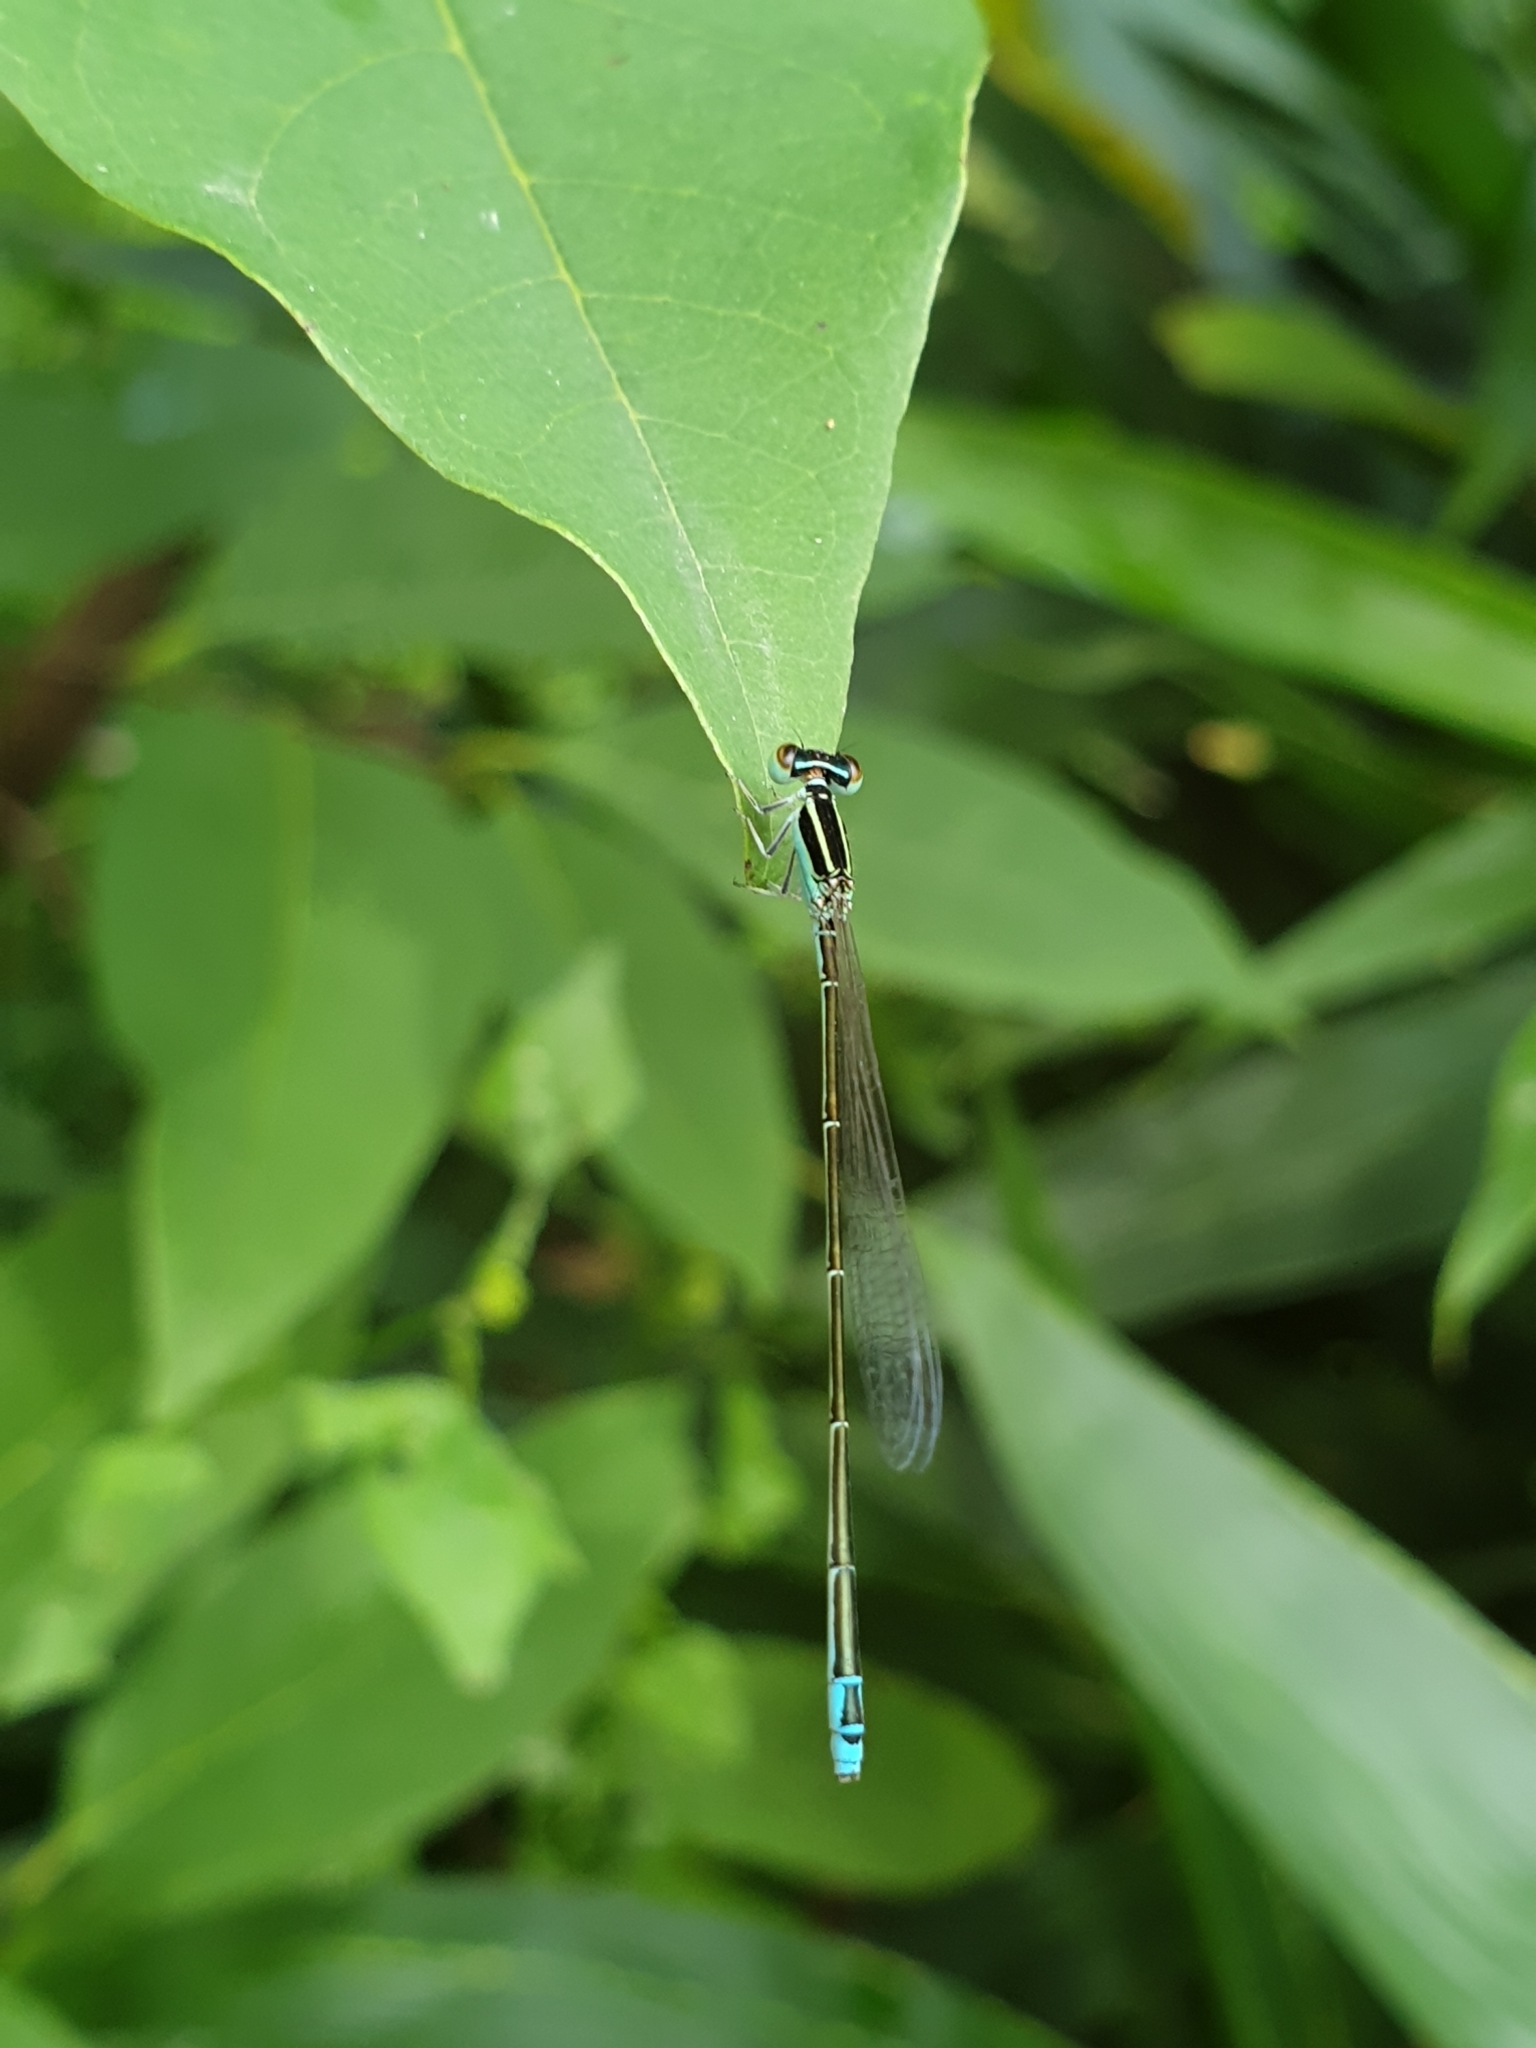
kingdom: Animalia
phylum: Arthropoda
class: Insecta
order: Odonata
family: Coenagrionidae
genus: Aciagrion
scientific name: Aciagrion occidentale
